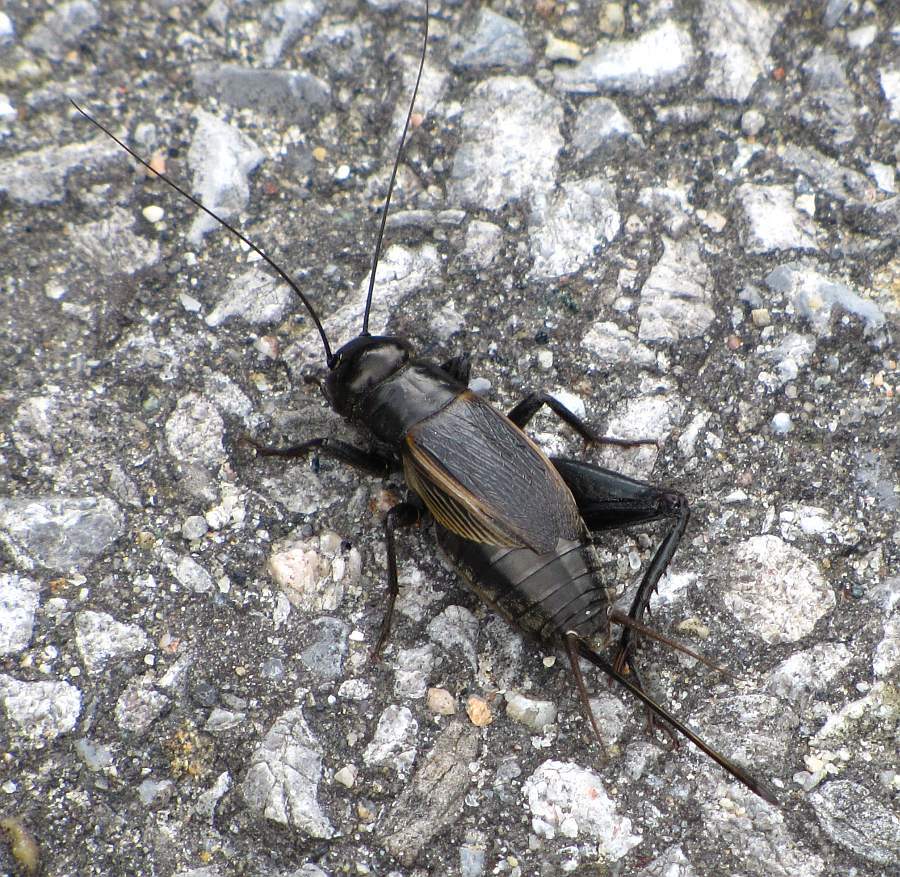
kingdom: Animalia
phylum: Arthropoda
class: Insecta
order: Orthoptera
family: Gryllidae
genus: Gryllus
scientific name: Gryllus pennsylvanicus
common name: Fall field cricket
